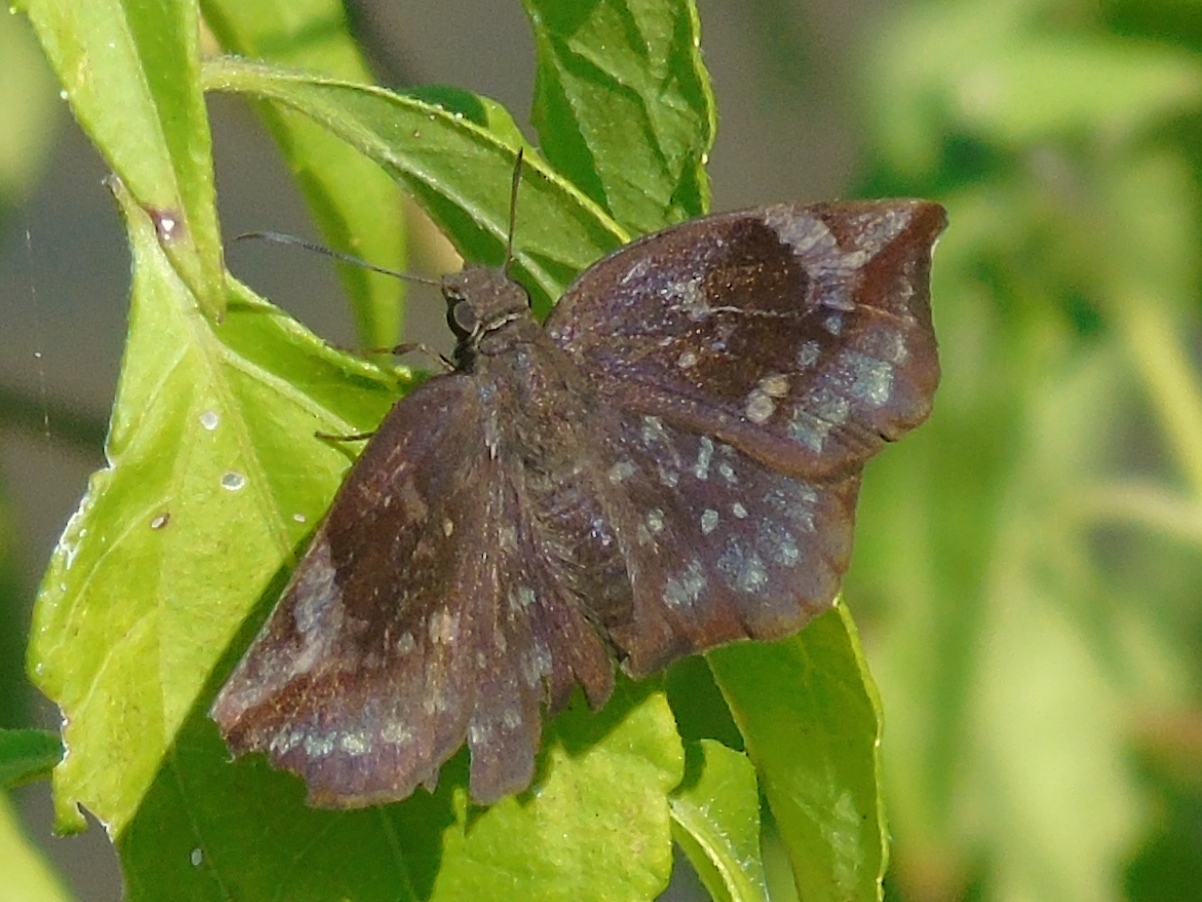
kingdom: Animalia
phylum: Arthropoda
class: Insecta
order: Lepidoptera
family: Hesperiidae
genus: Achlyodes
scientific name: Achlyodes thraso
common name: Sickle-winged skipper
